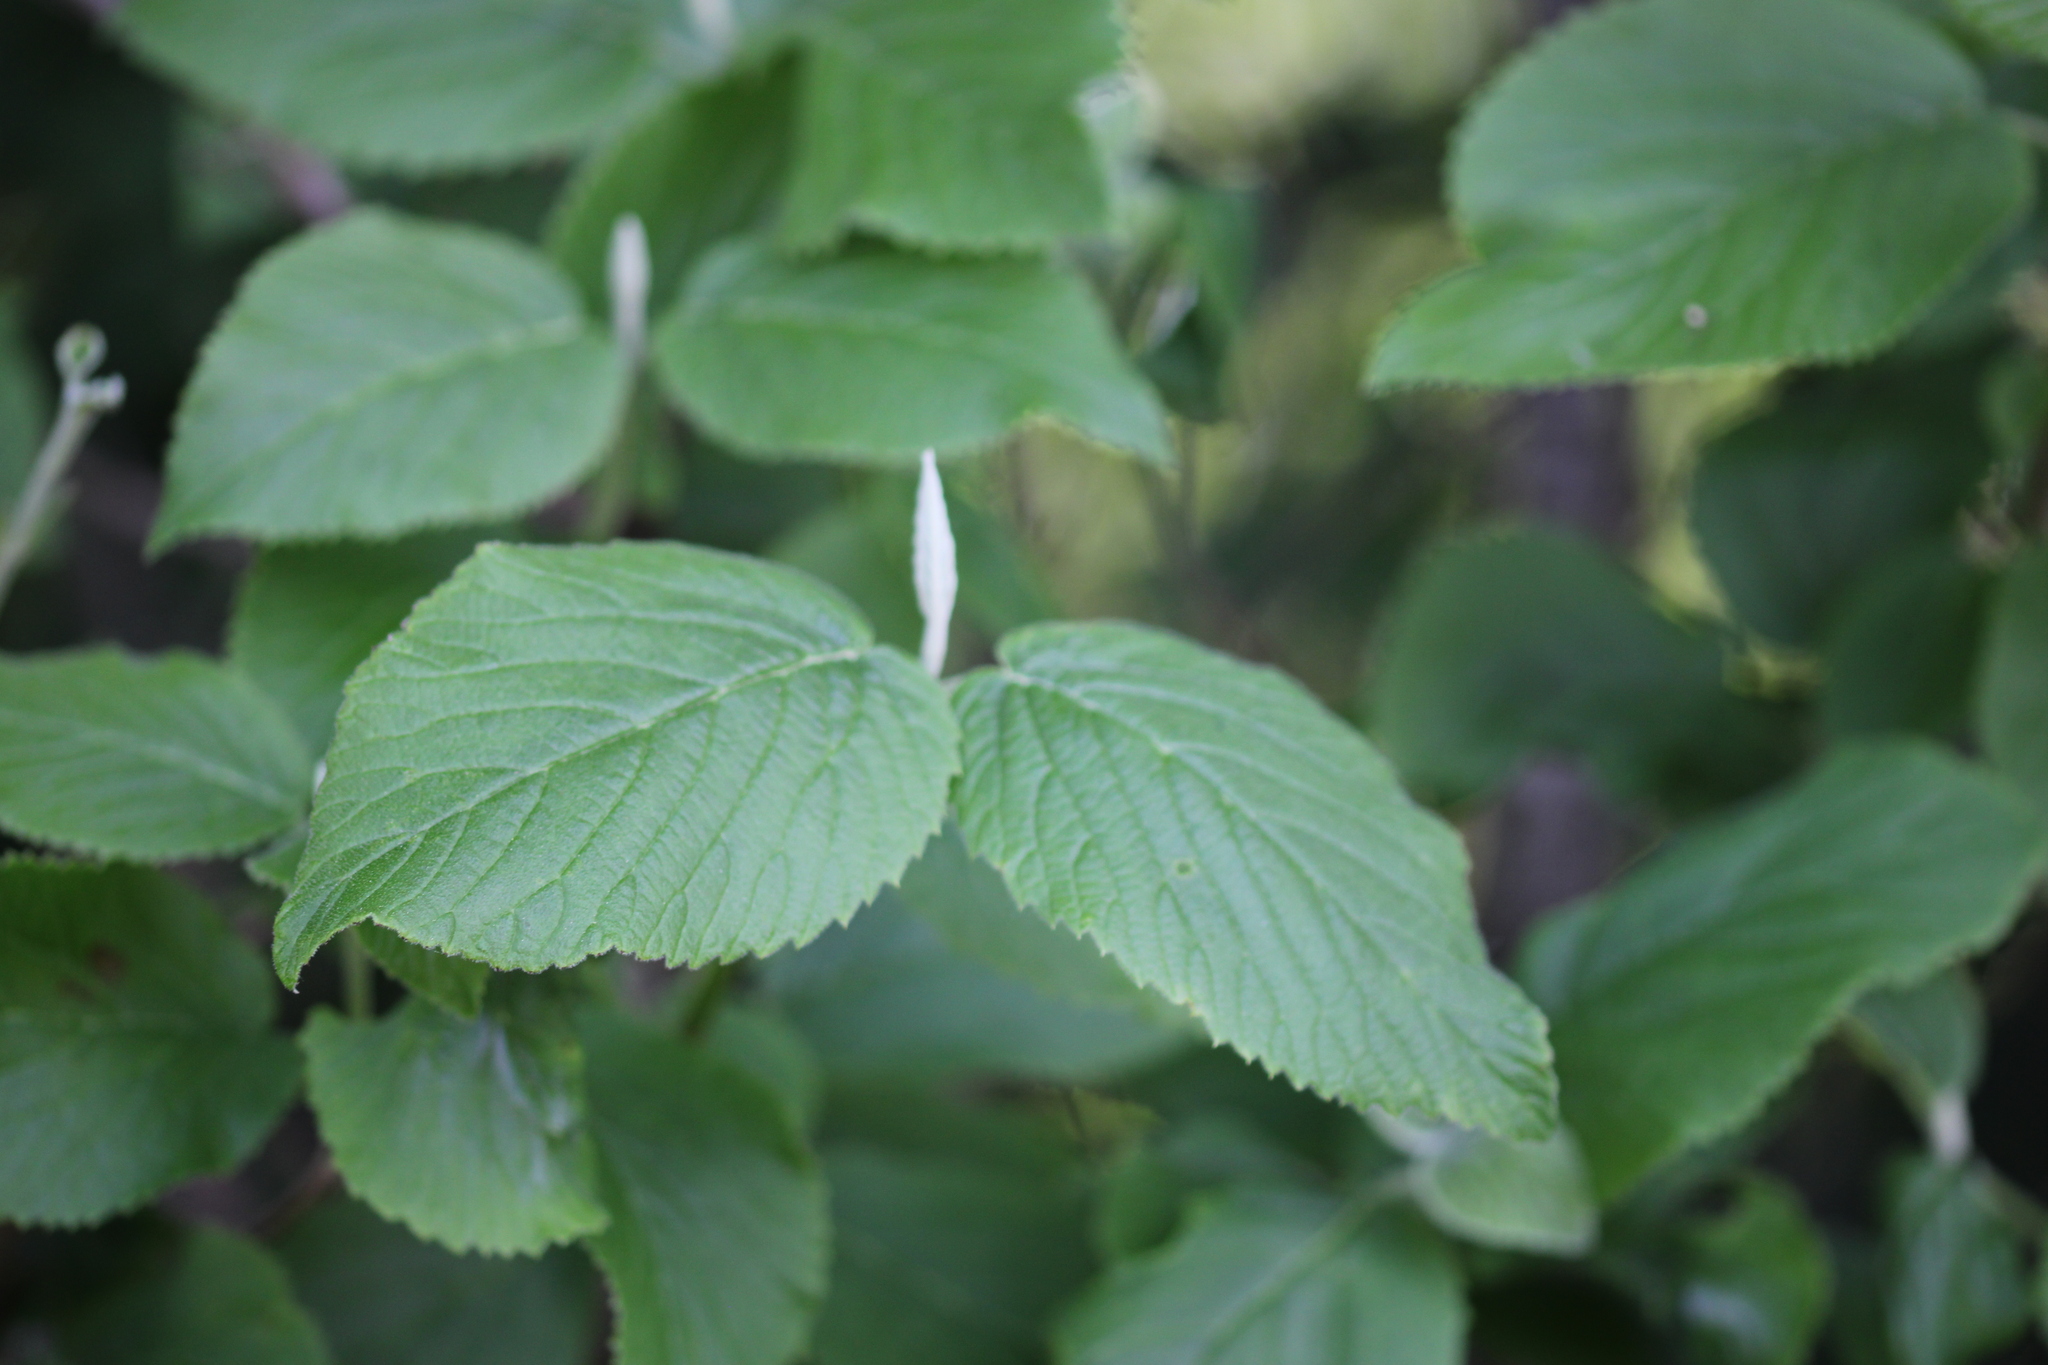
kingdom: Plantae
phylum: Tracheophyta
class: Magnoliopsida
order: Dipsacales
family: Viburnaceae
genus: Viburnum
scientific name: Viburnum lantana
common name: Wayfaring tree
